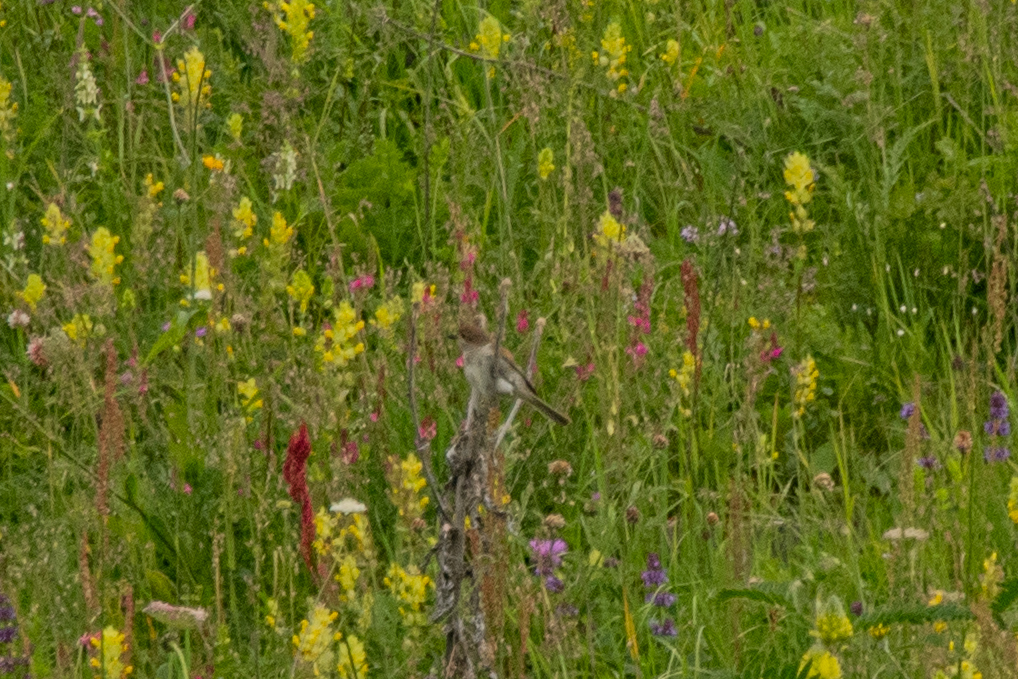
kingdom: Animalia
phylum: Chordata
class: Aves
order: Passeriformes
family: Laniidae
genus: Lanius
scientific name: Lanius collurio
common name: Red-backed shrike
